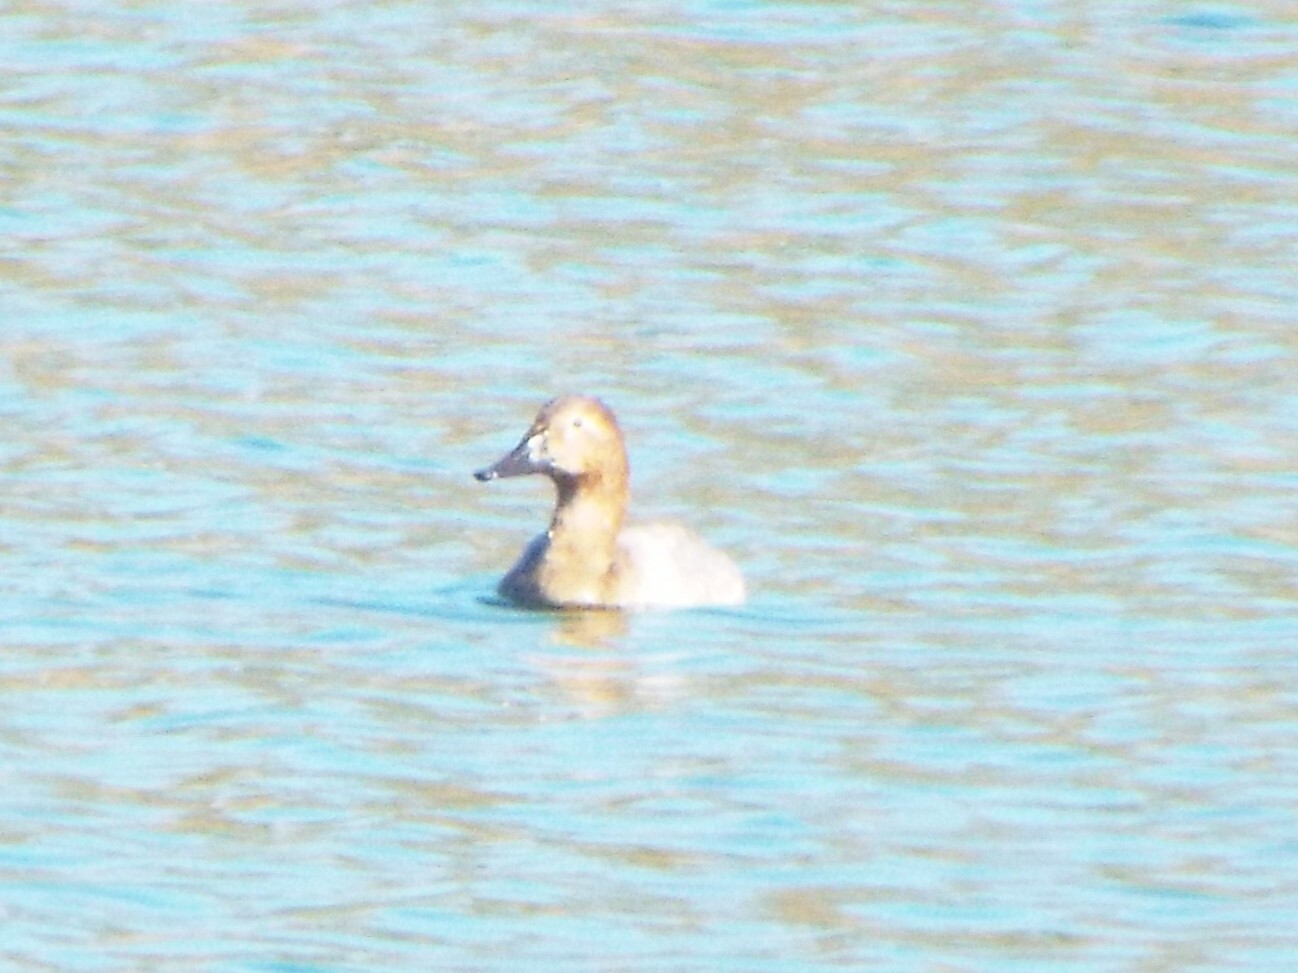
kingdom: Animalia
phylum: Chordata
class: Aves
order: Anseriformes
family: Anatidae
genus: Aythya
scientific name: Aythya valisineria
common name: Canvasback
